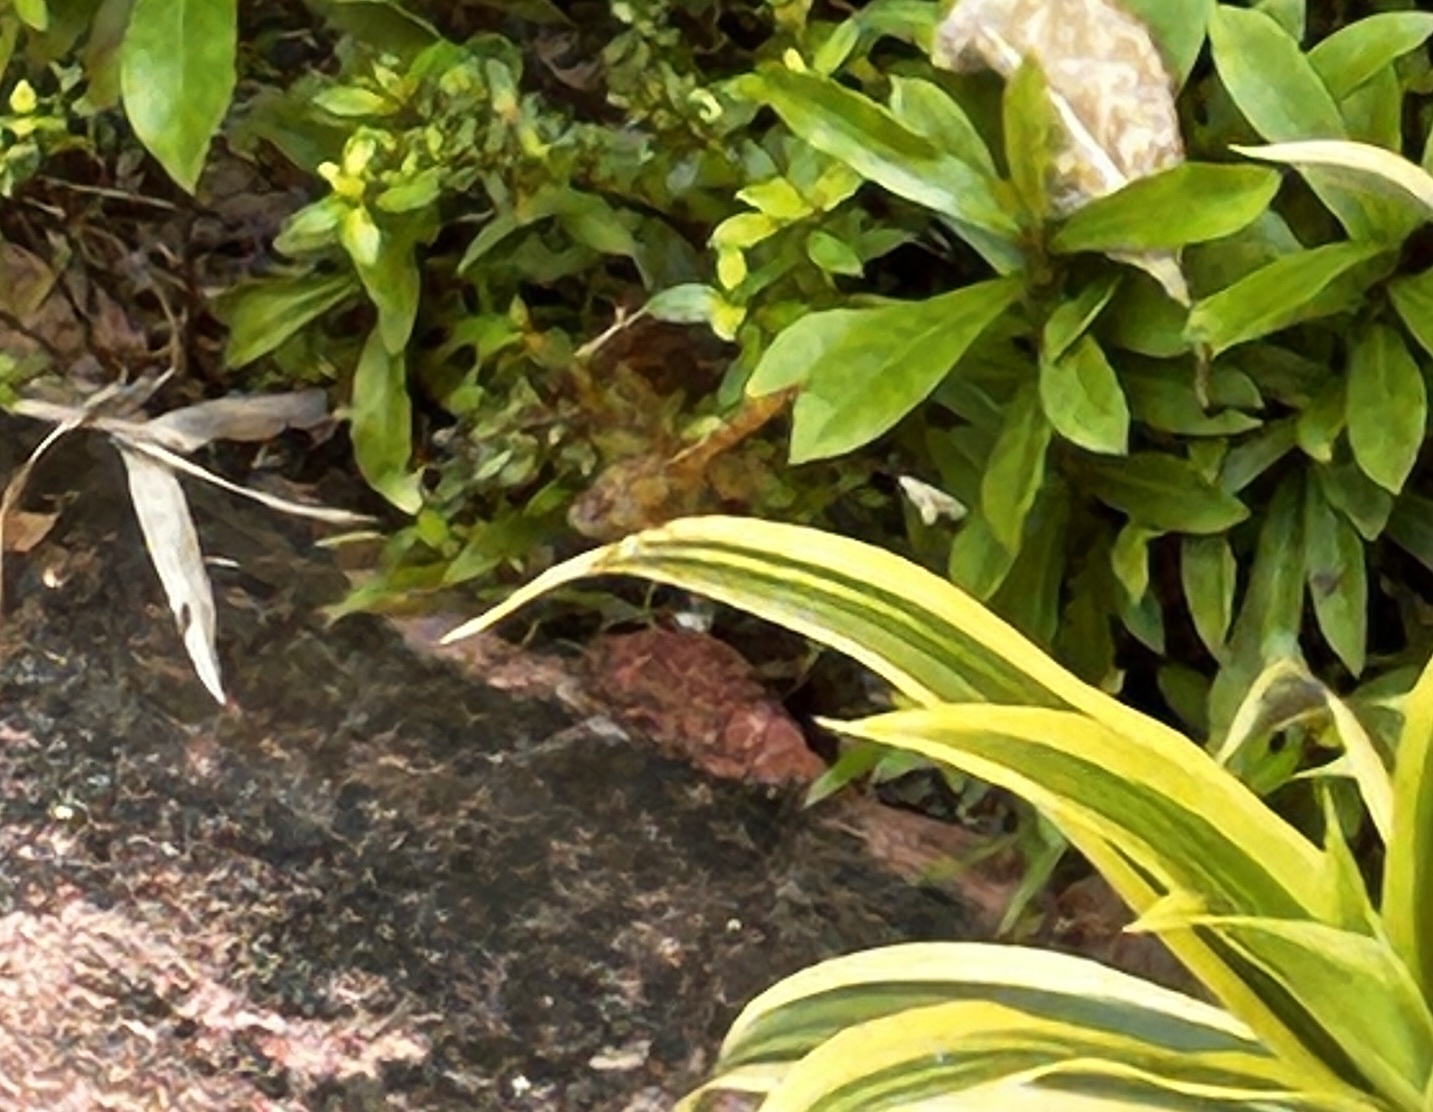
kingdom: Animalia
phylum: Arthropoda
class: Insecta
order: Odonata
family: Libellulidae
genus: Brachythemis
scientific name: Brachythemis contaminata
